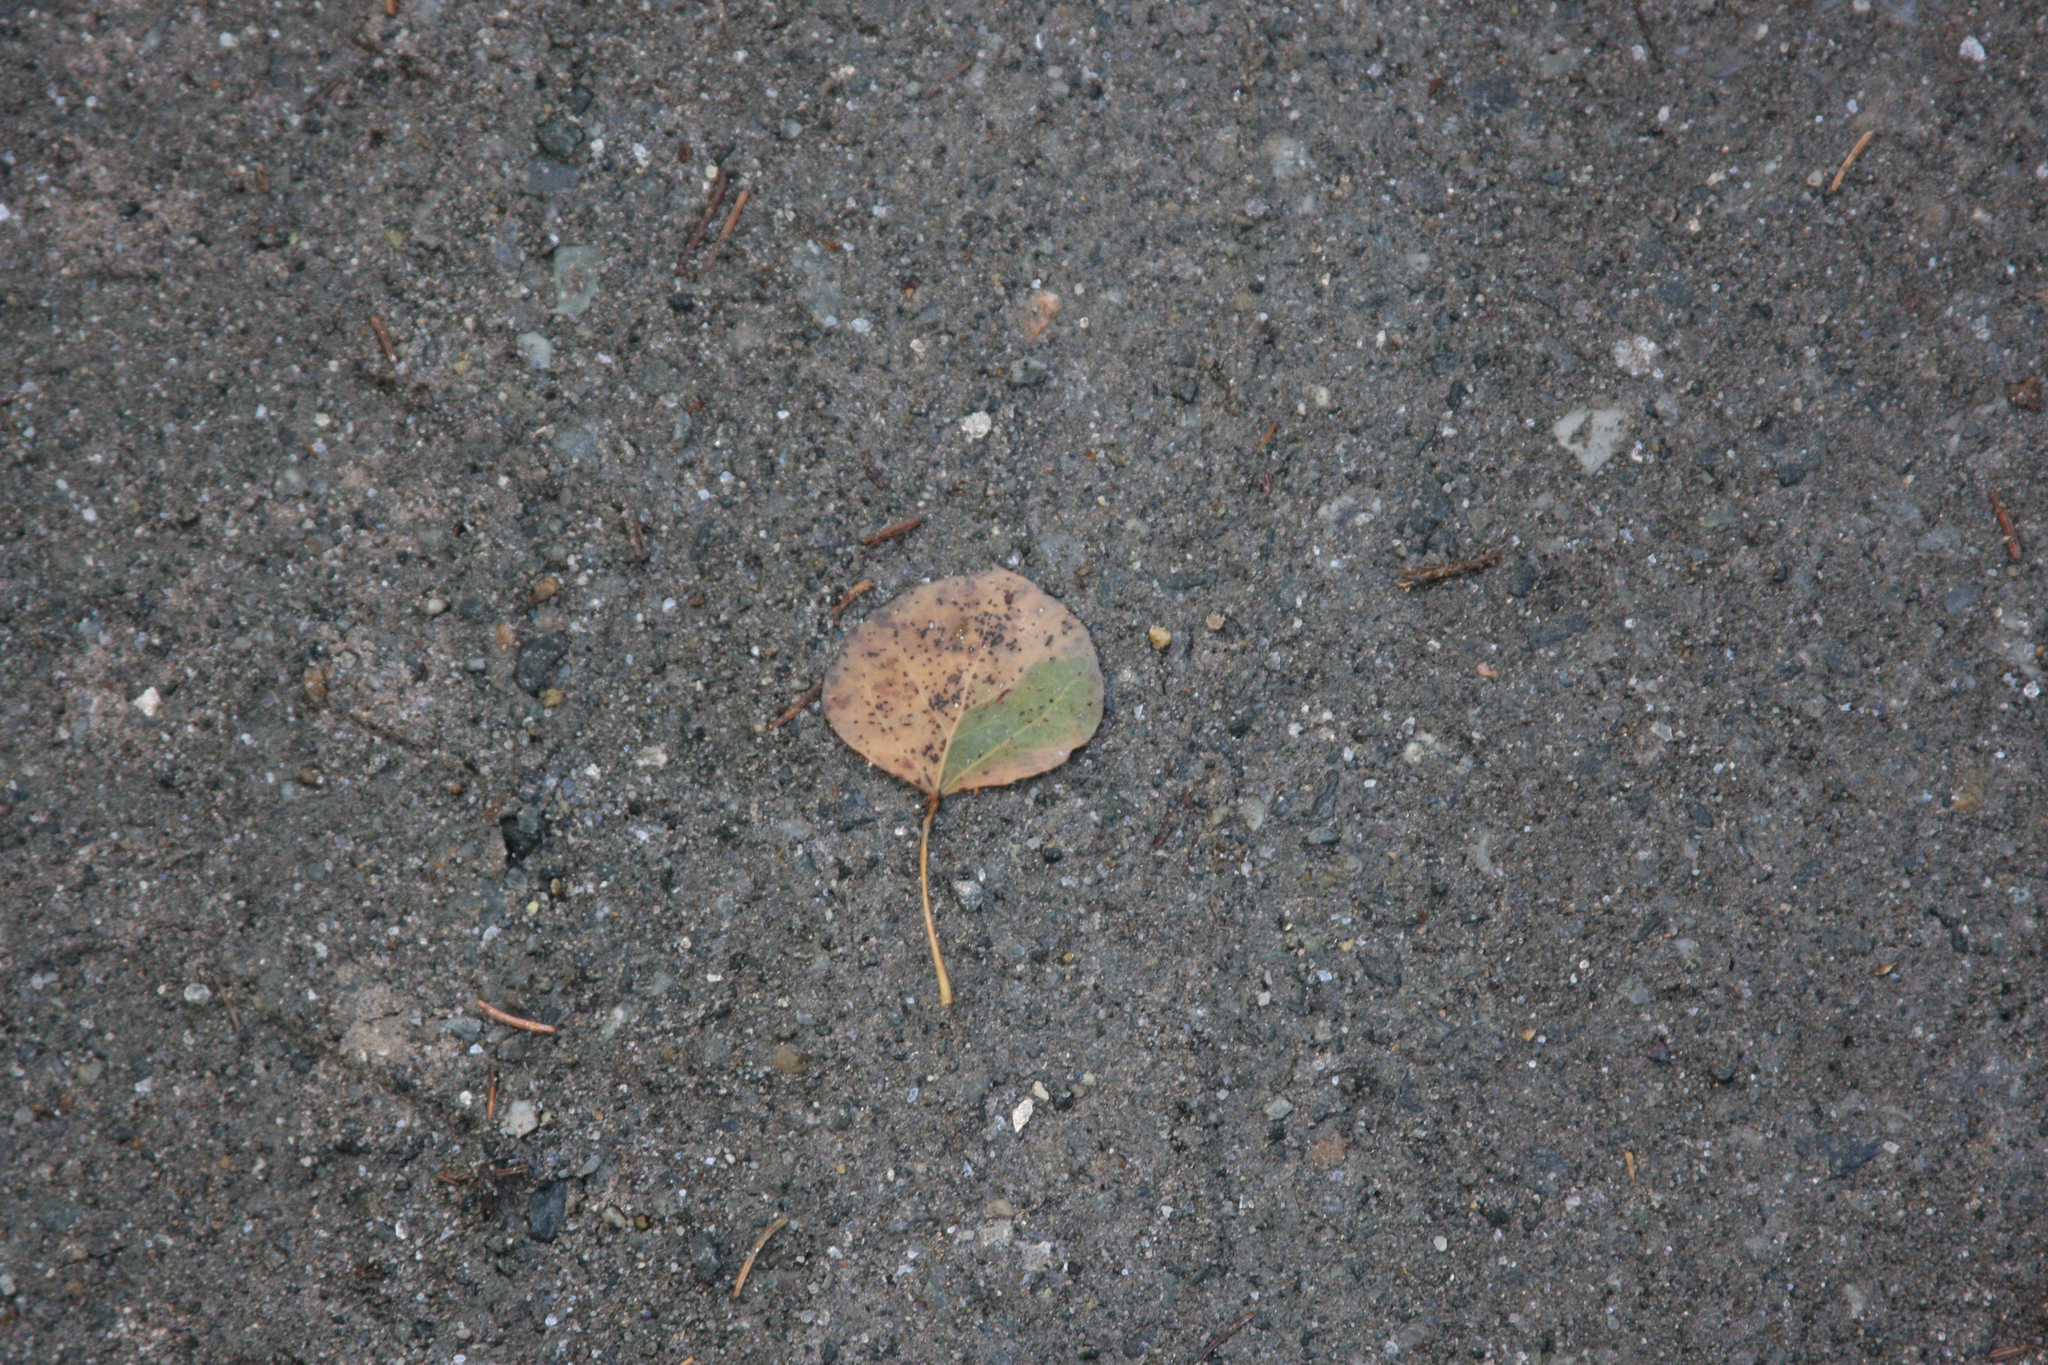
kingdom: Plantae
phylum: Tracheophyta
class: Magnoliopsida
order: Malpighiales
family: Salicaceae
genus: Populus
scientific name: Populus tremuloides
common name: Quaking aspen
